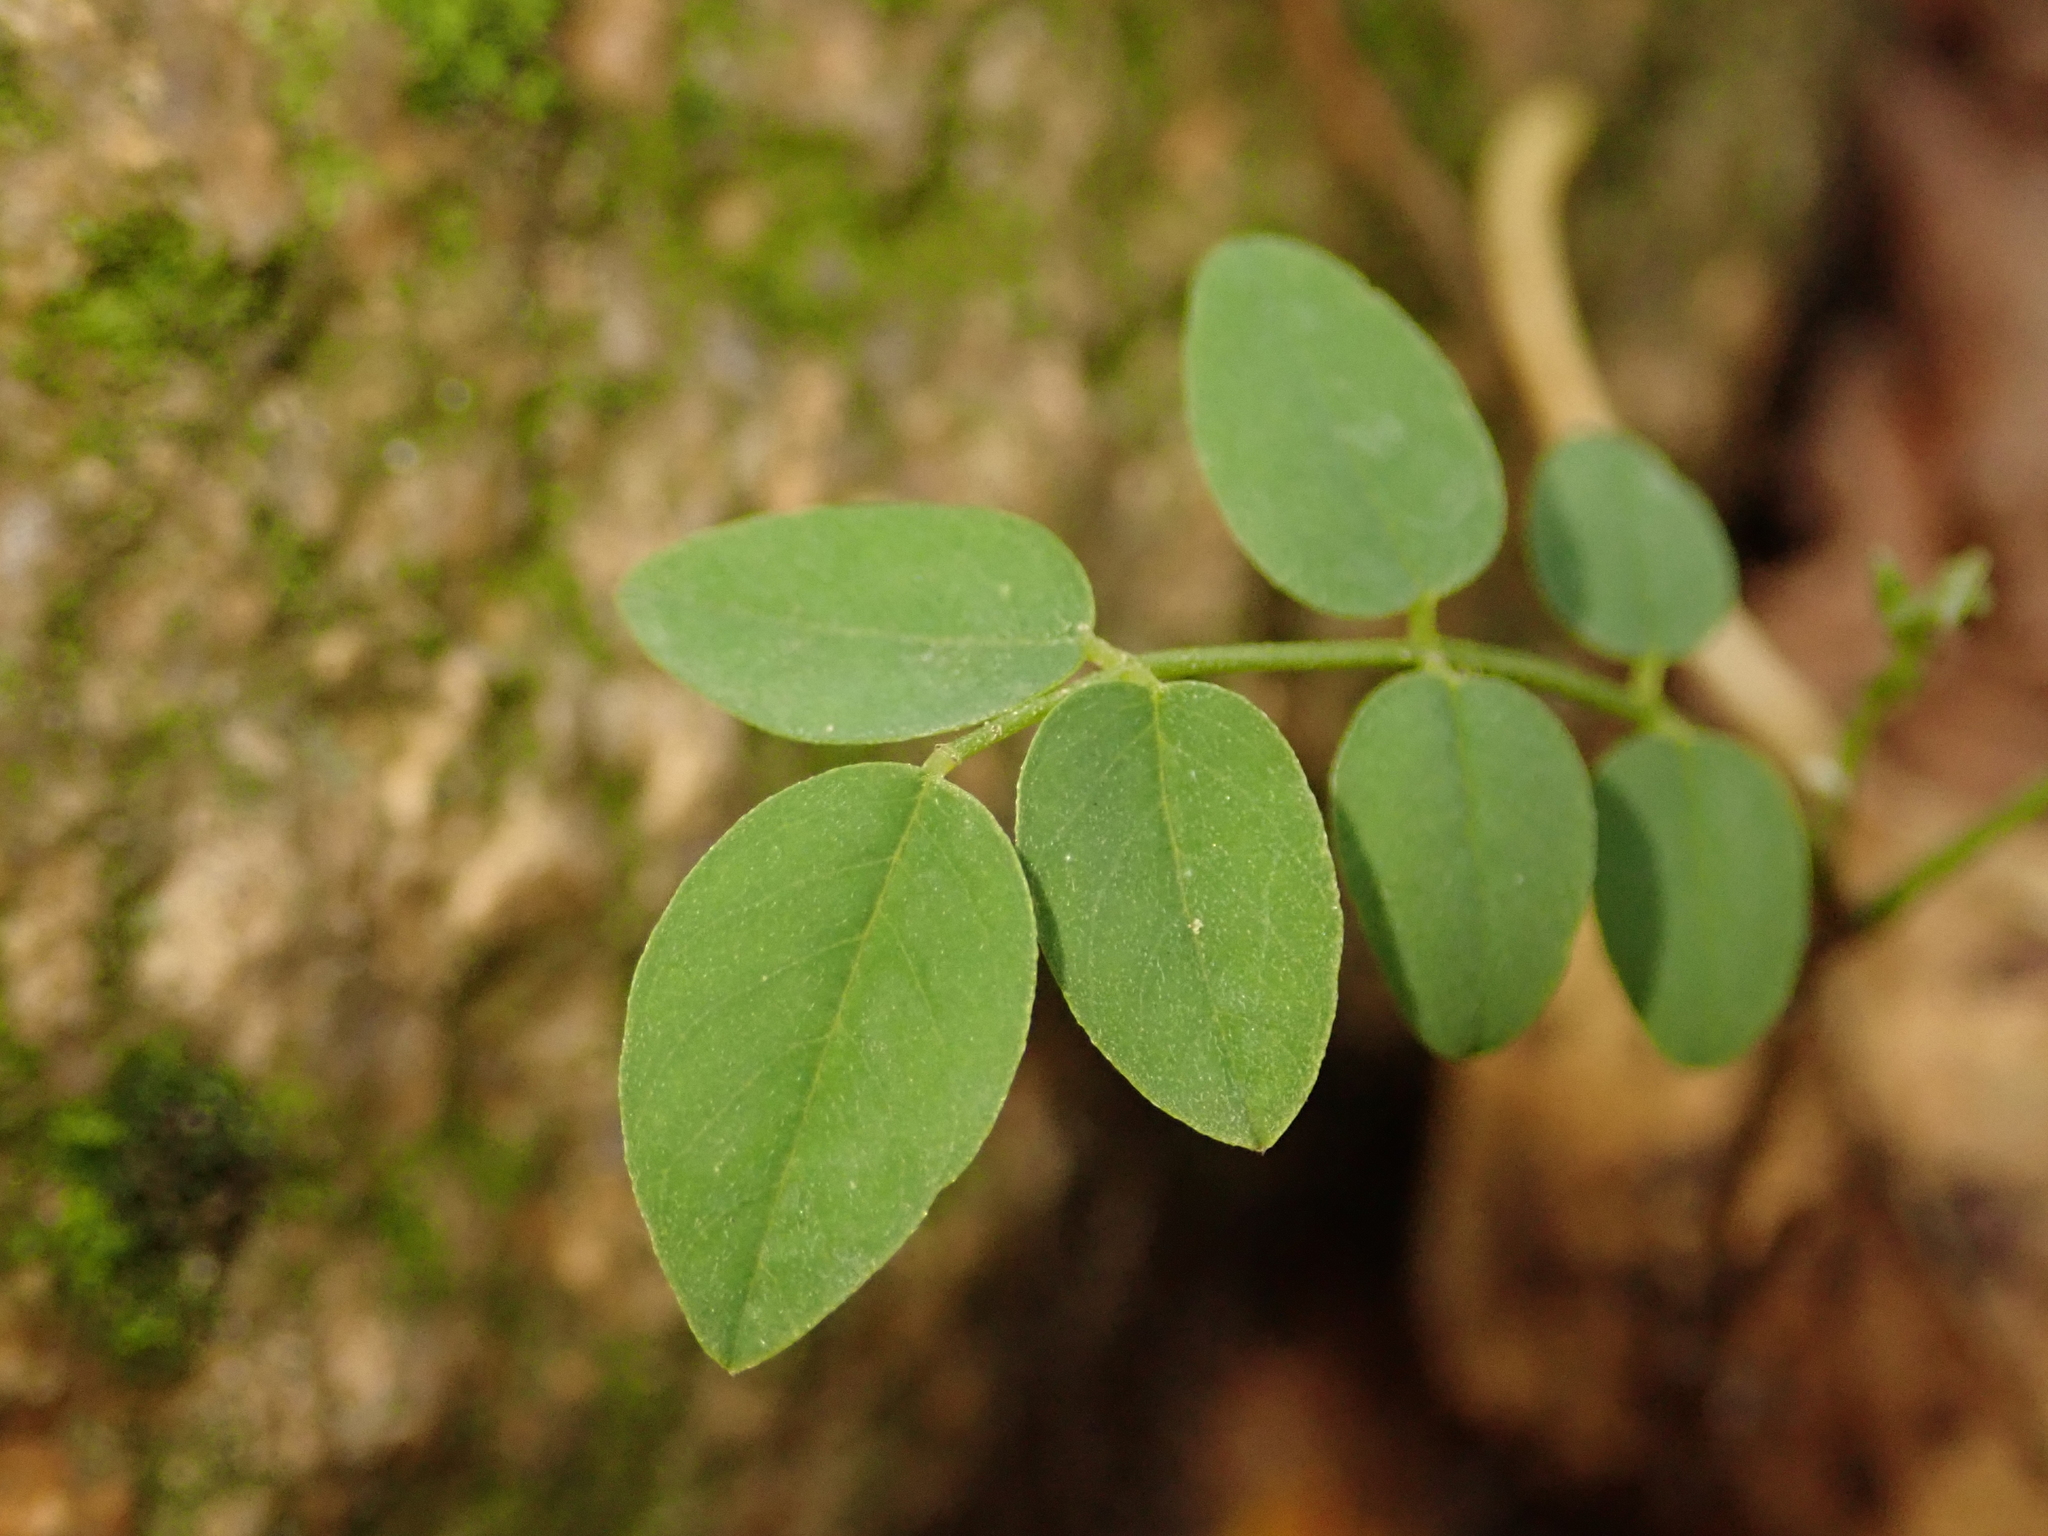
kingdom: Plantae
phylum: Tracheophyta
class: Magnoliopsida
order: Fabales
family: Fabaceae
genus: Robinia
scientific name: Robinia pseudoacacia
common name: Black locust
